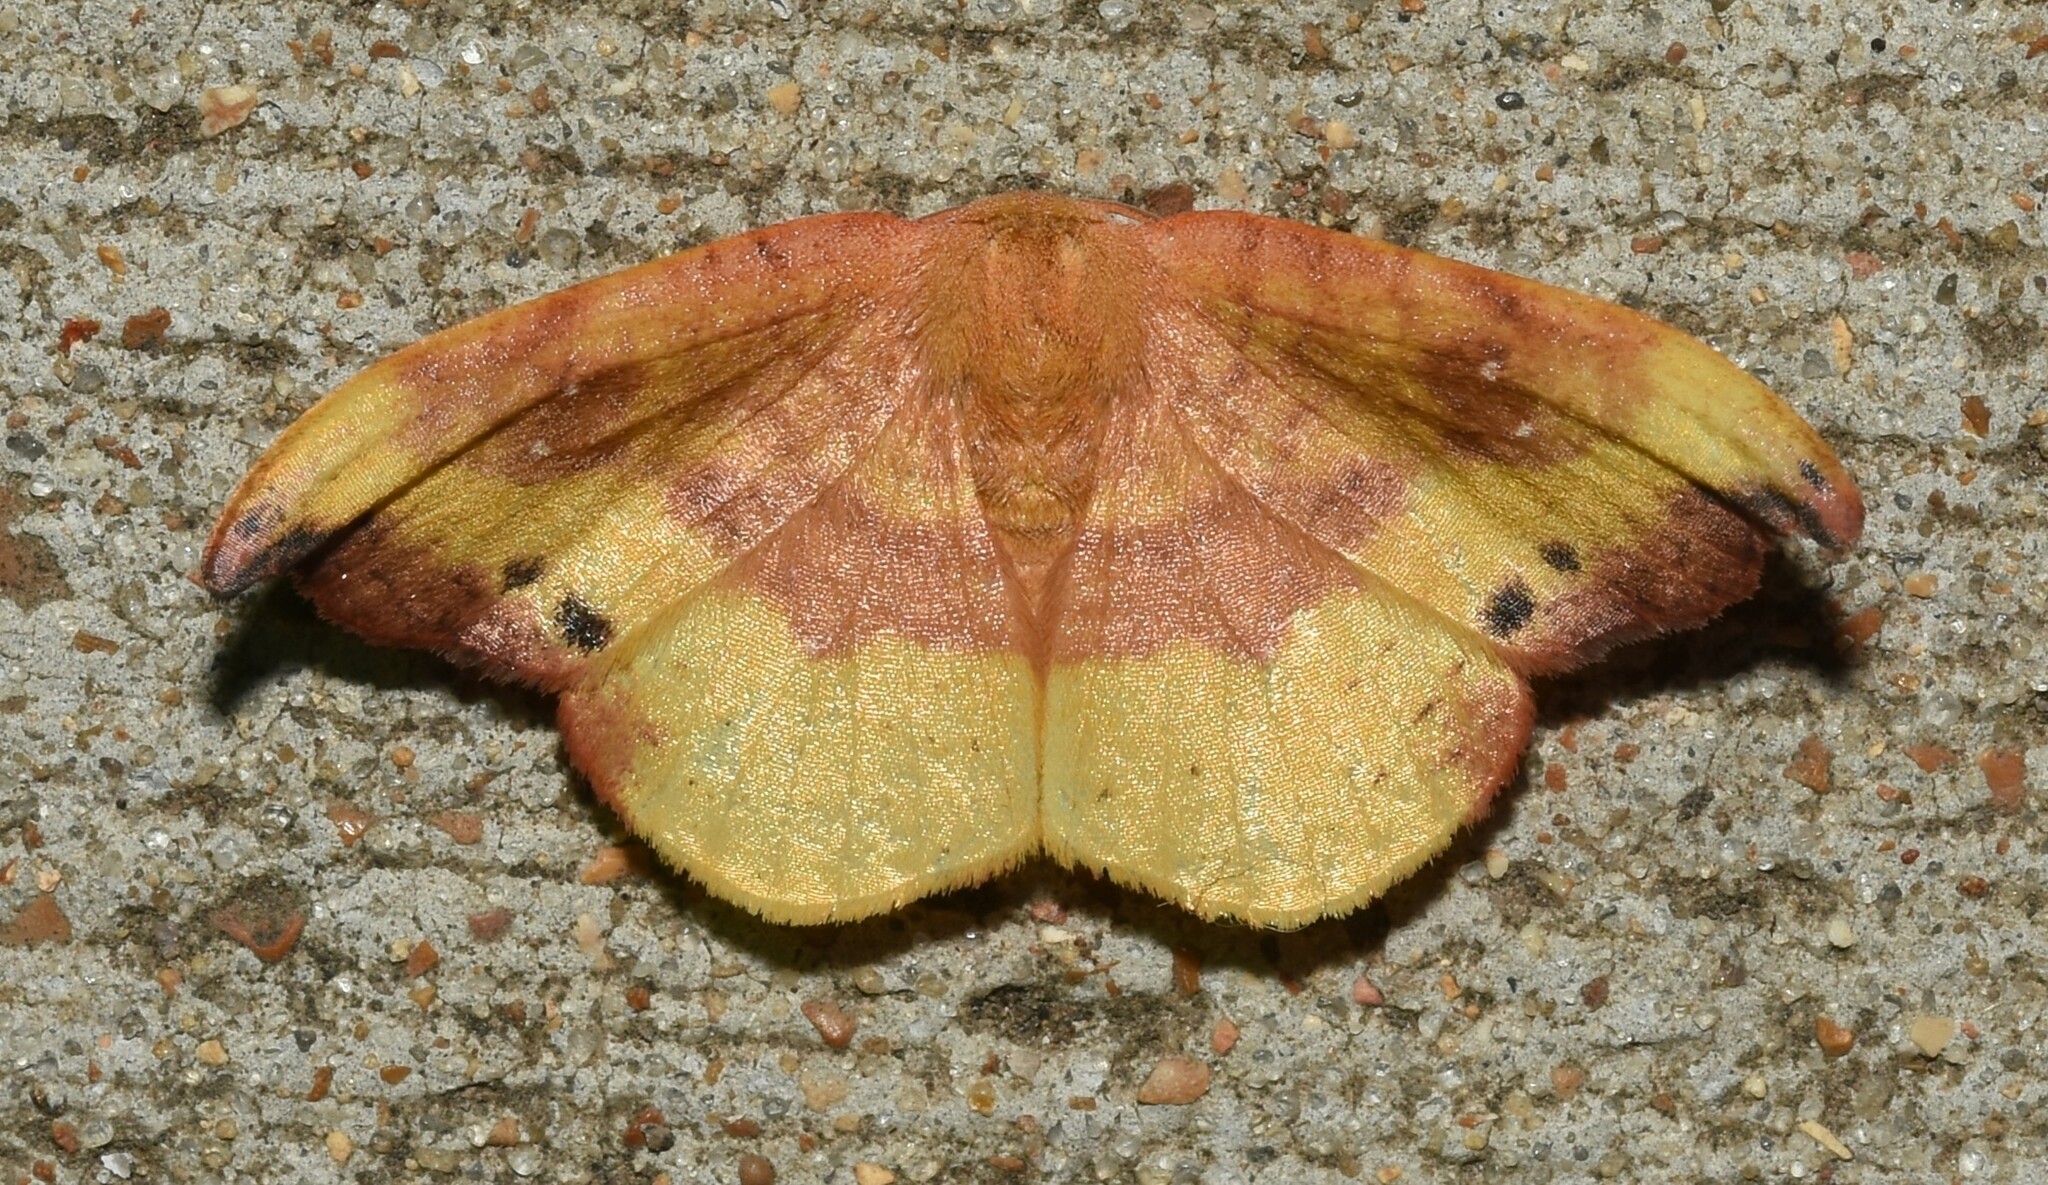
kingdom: Animalia
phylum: Arthropoda
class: Insecta
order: Lepidoptera
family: Drepanidae
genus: Oreta
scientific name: Oreta rosea
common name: Rose hooktip
